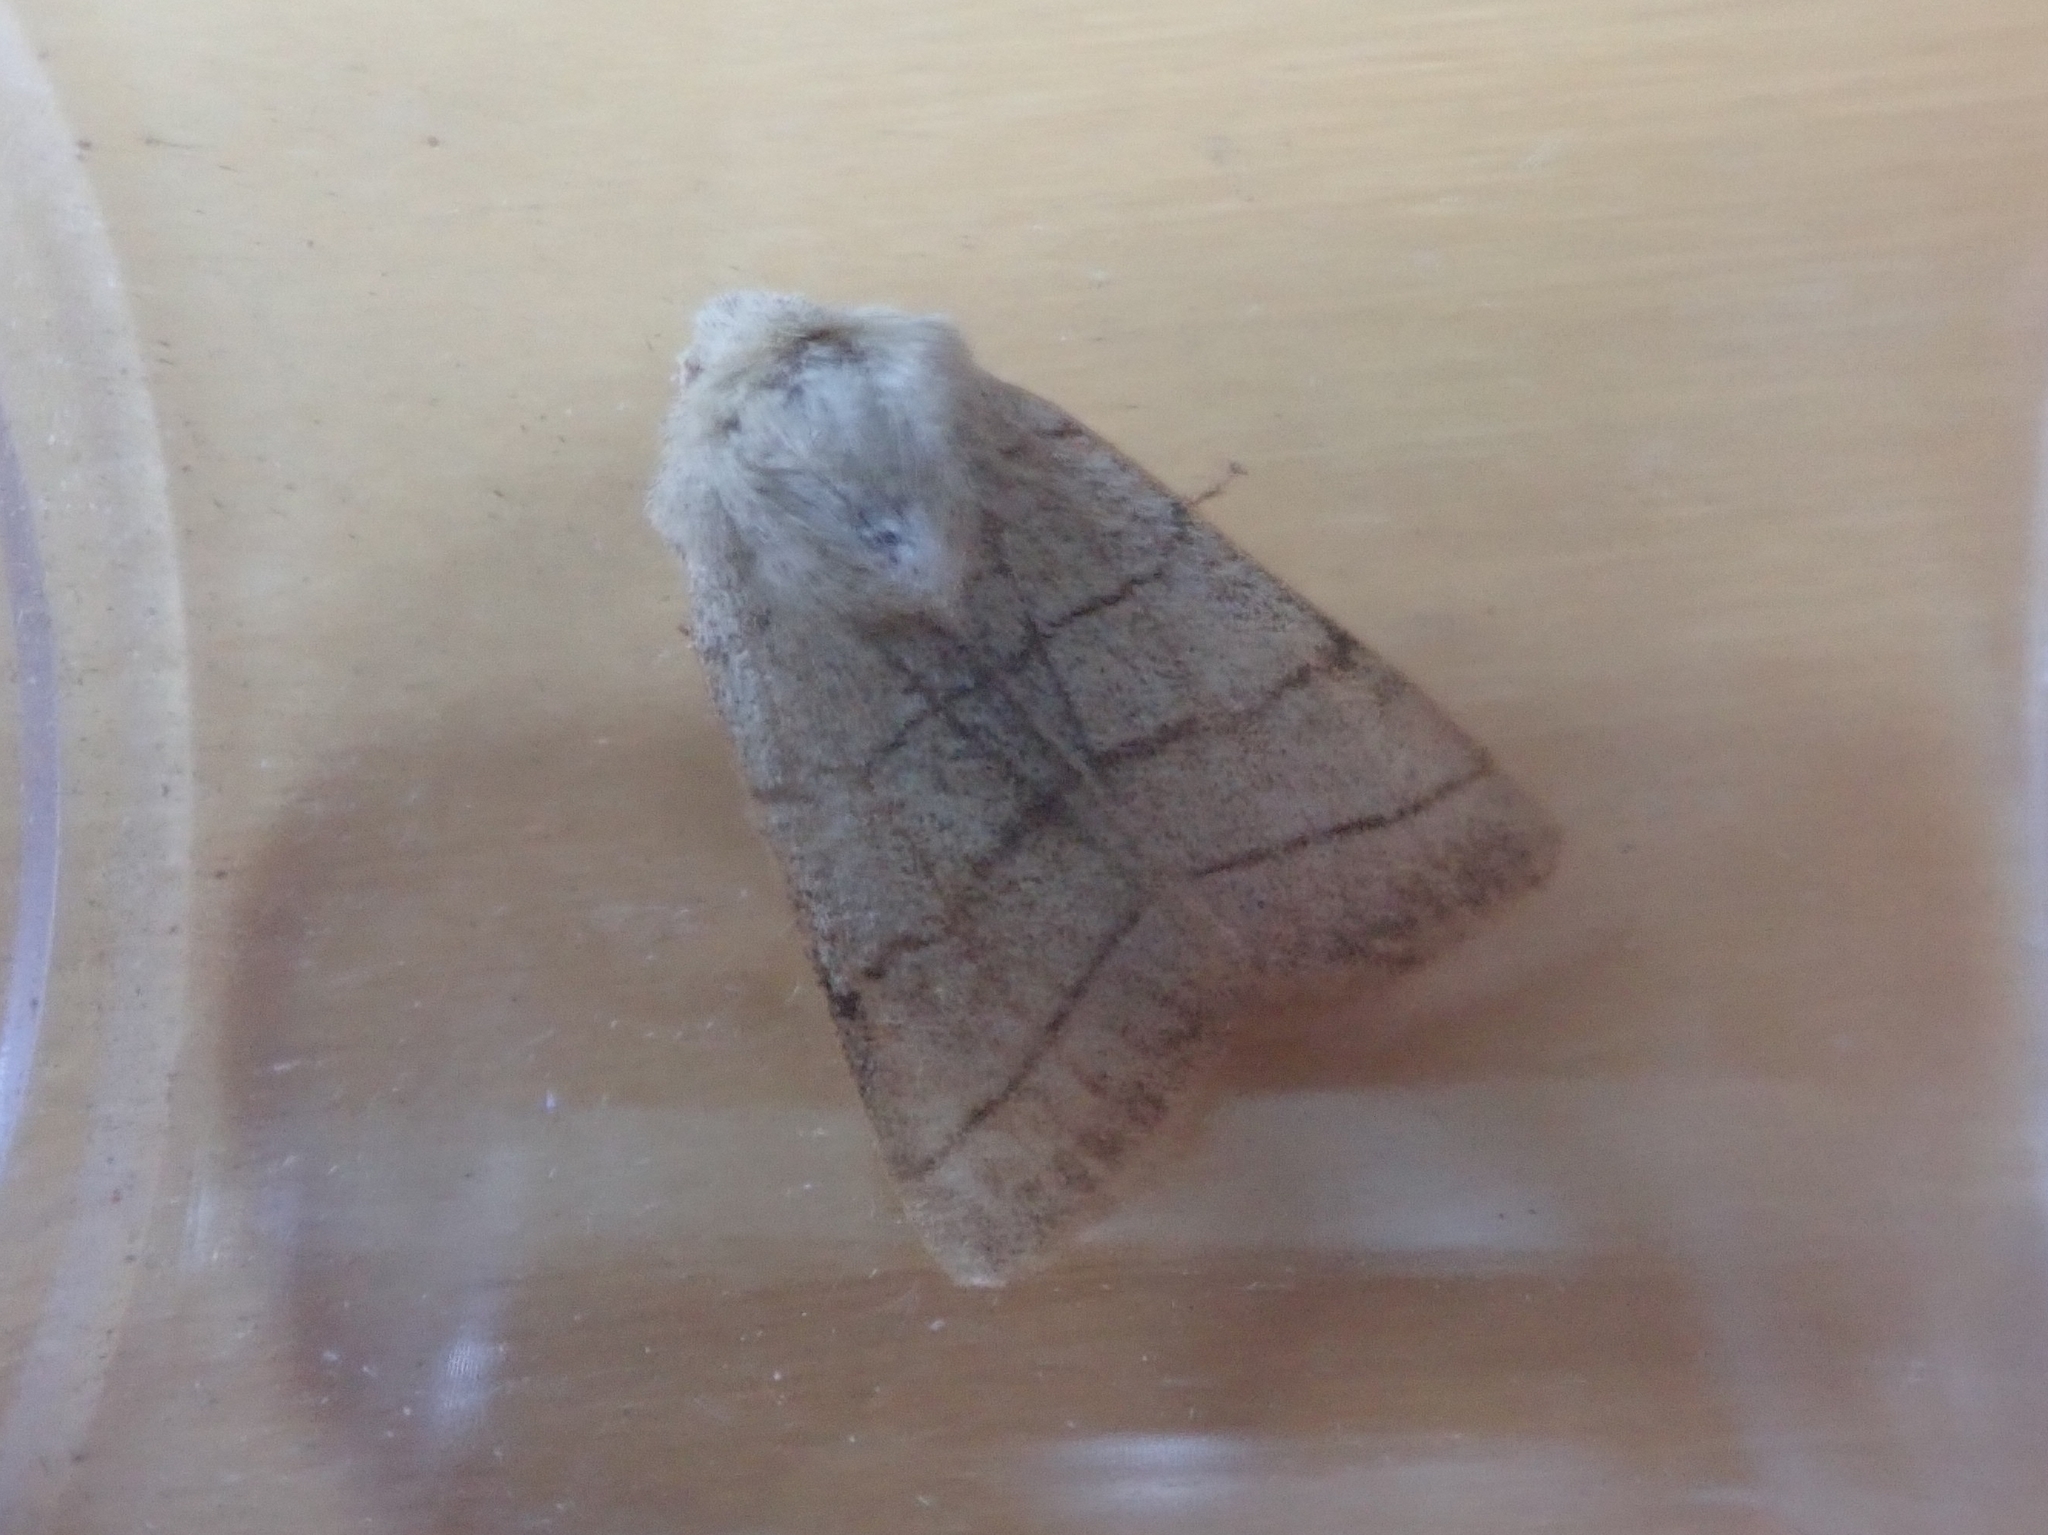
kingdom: Animalia
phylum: Arthropoda
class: Insecta
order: Lepidoptera
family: Noctuidae
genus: Charanyca
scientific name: Charanyca trigrammica
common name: Treble lines
